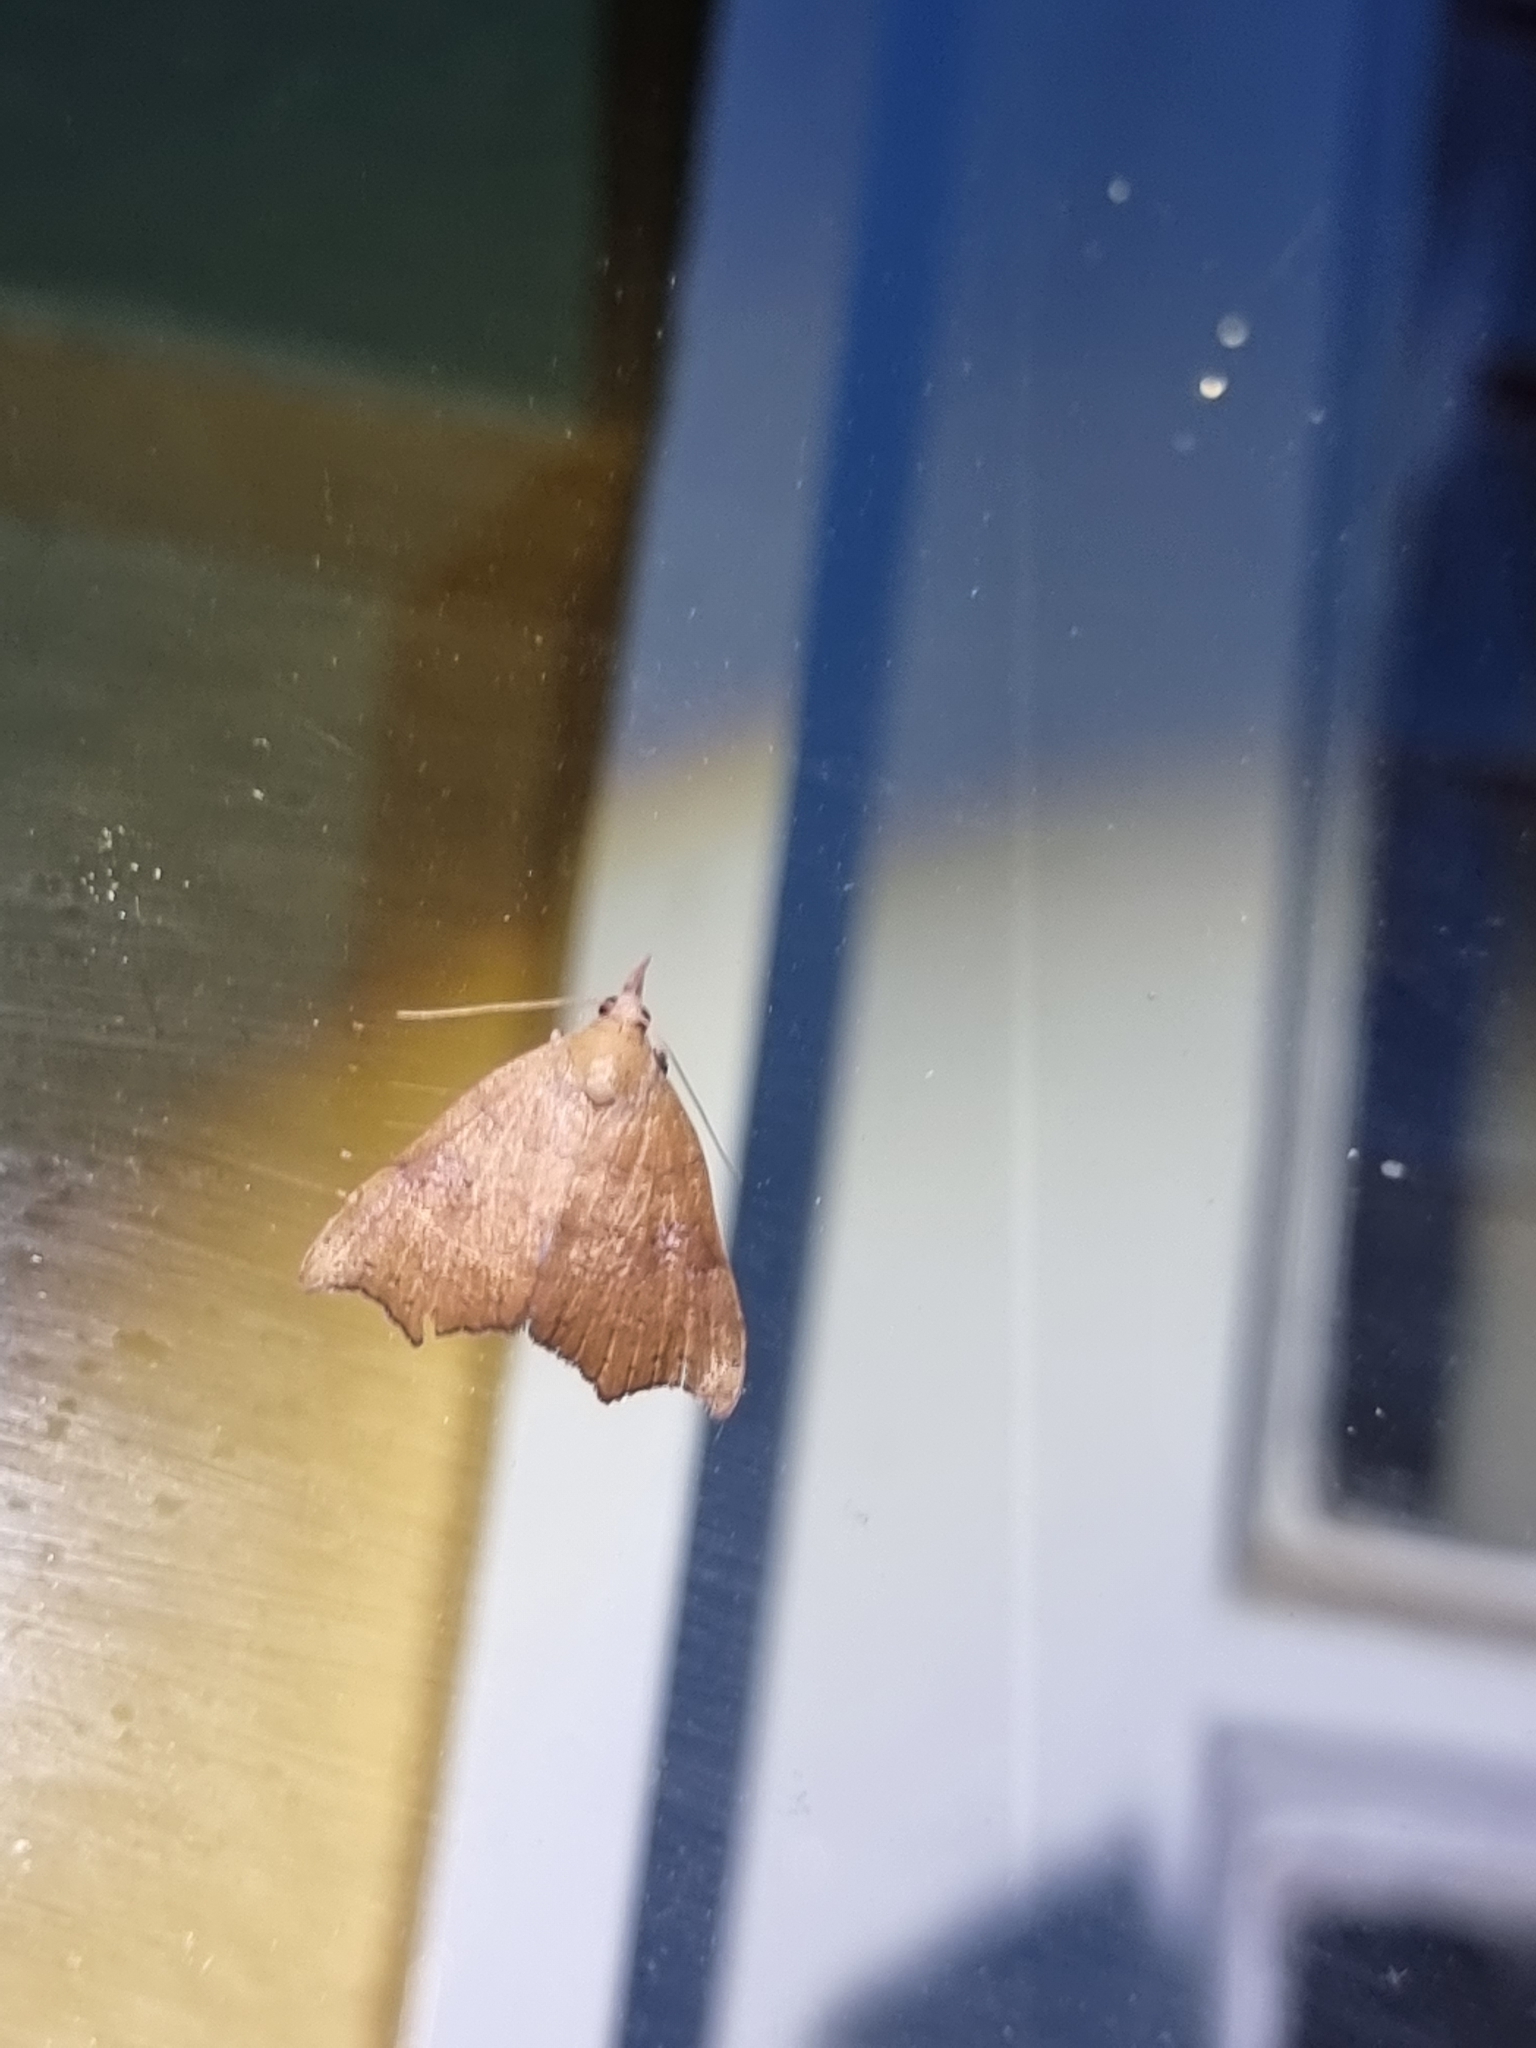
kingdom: Animalia
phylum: Arthropoda
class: Insecta
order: Lepidoptera
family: Erebidae
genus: Axiocteta
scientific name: Axiocteta oenoplex
